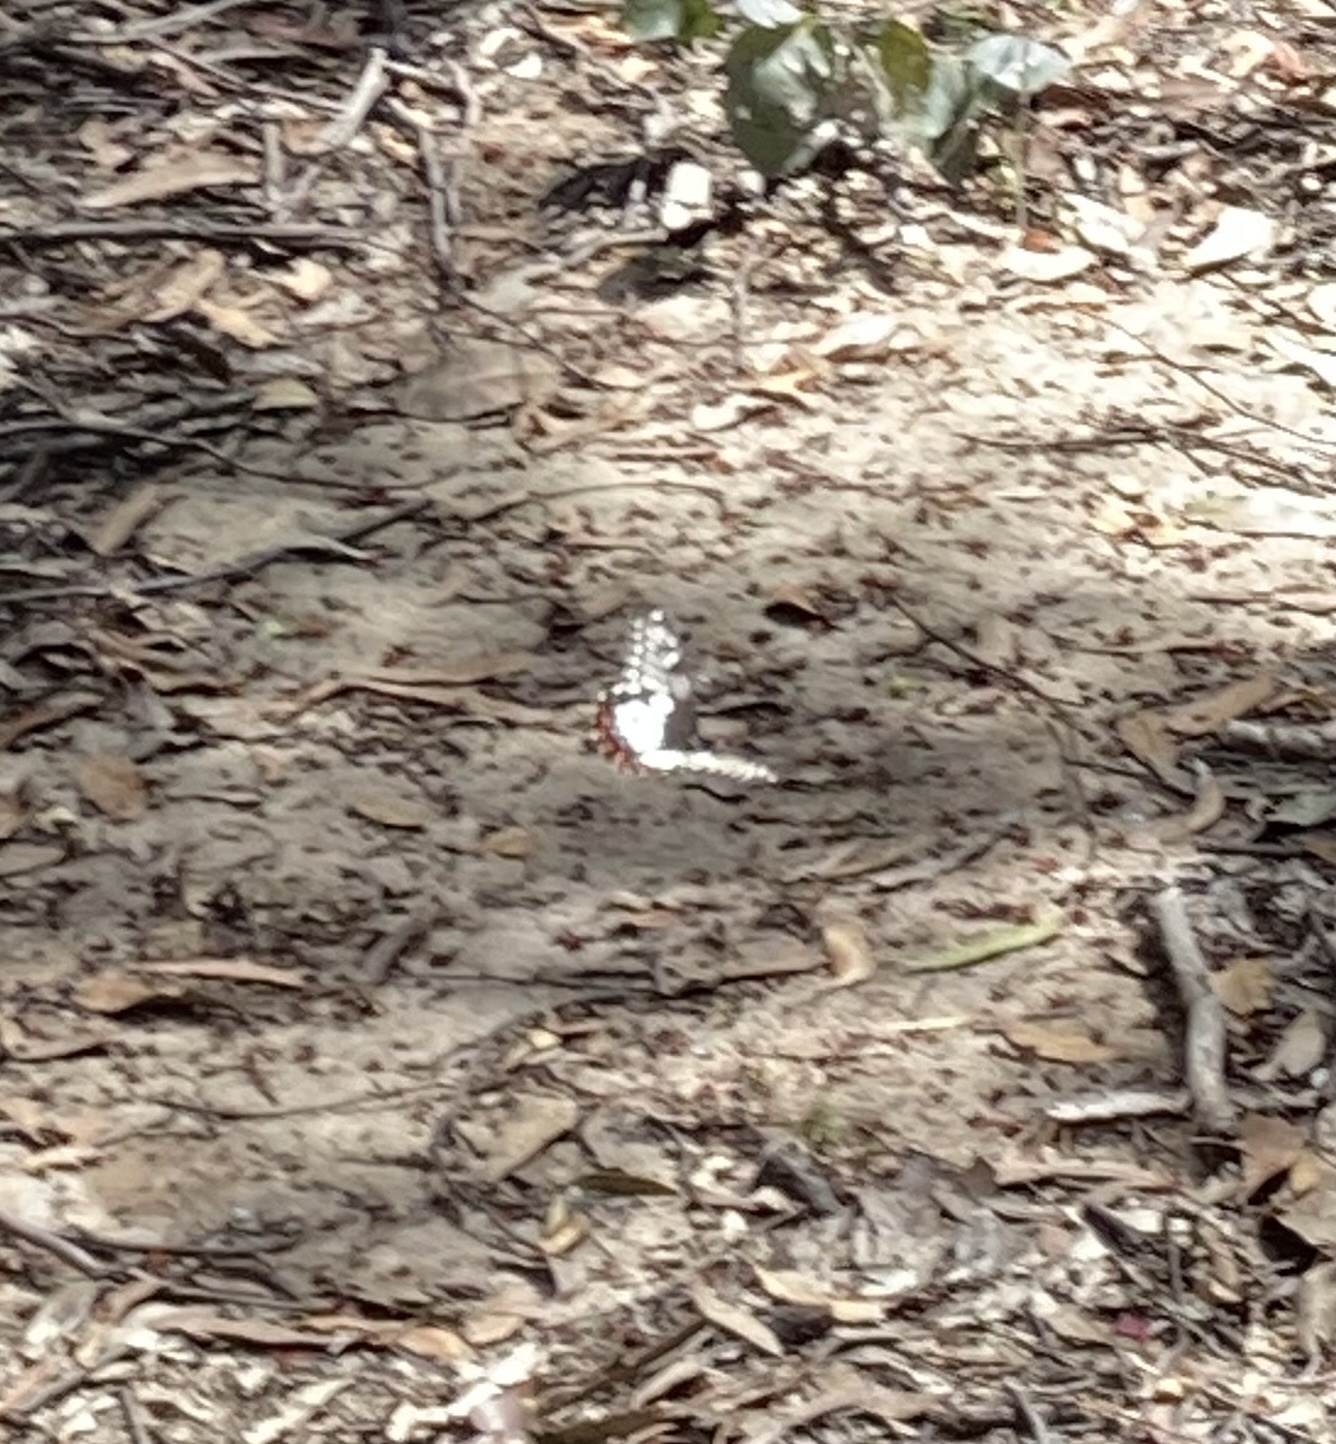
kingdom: Animalia
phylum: Arthropoda
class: Insecta
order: Lepidoptera
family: Papilionidae
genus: Papilio
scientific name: Papilio anactus
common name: Dingy swallowtail
